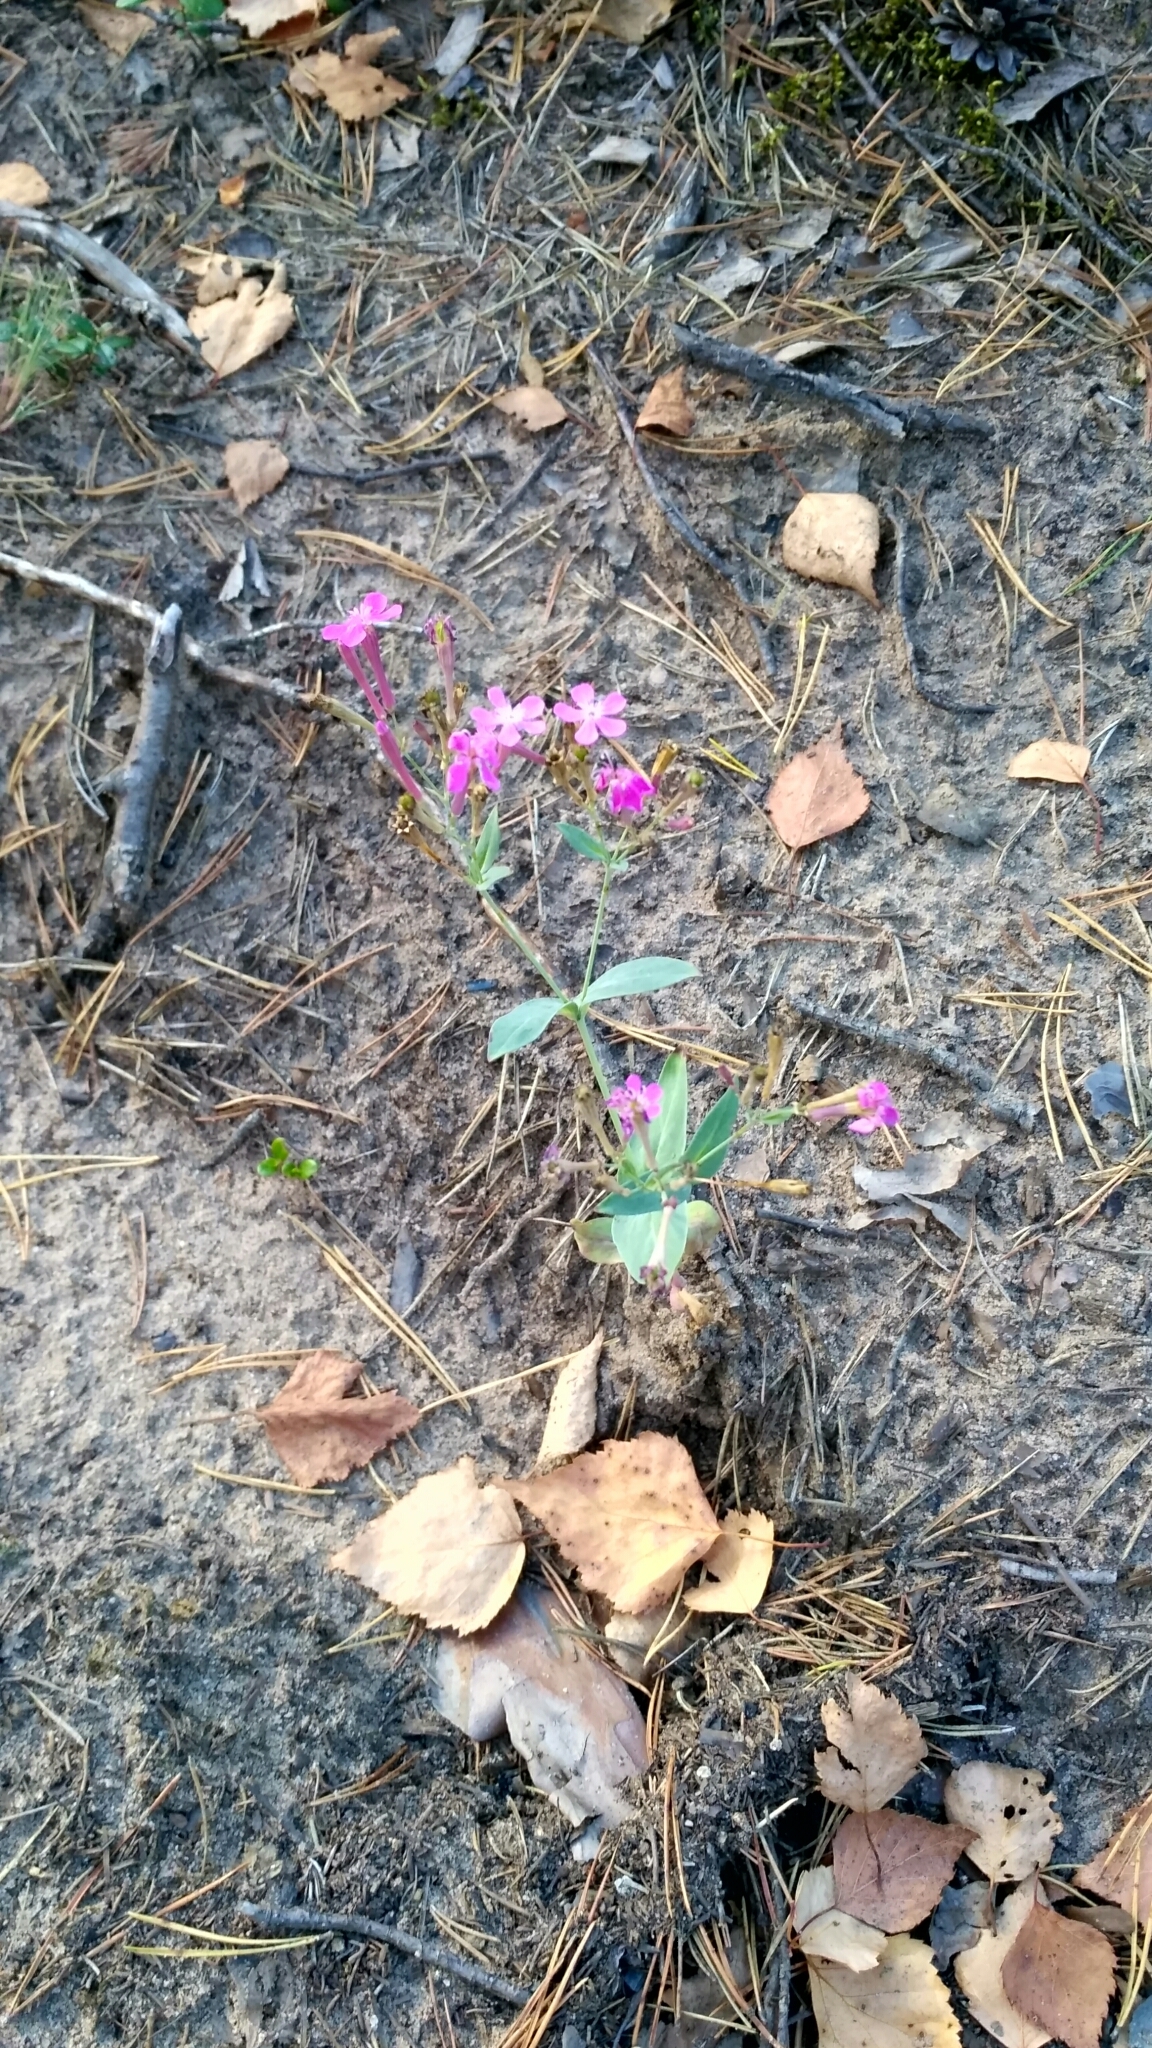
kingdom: Plantae
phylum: Tracheophyta
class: Magnoliopsida
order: Caryophyllales
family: Caryophyllaceae
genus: Atocion
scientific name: Atocion armeria
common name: Sweet william catchfly
